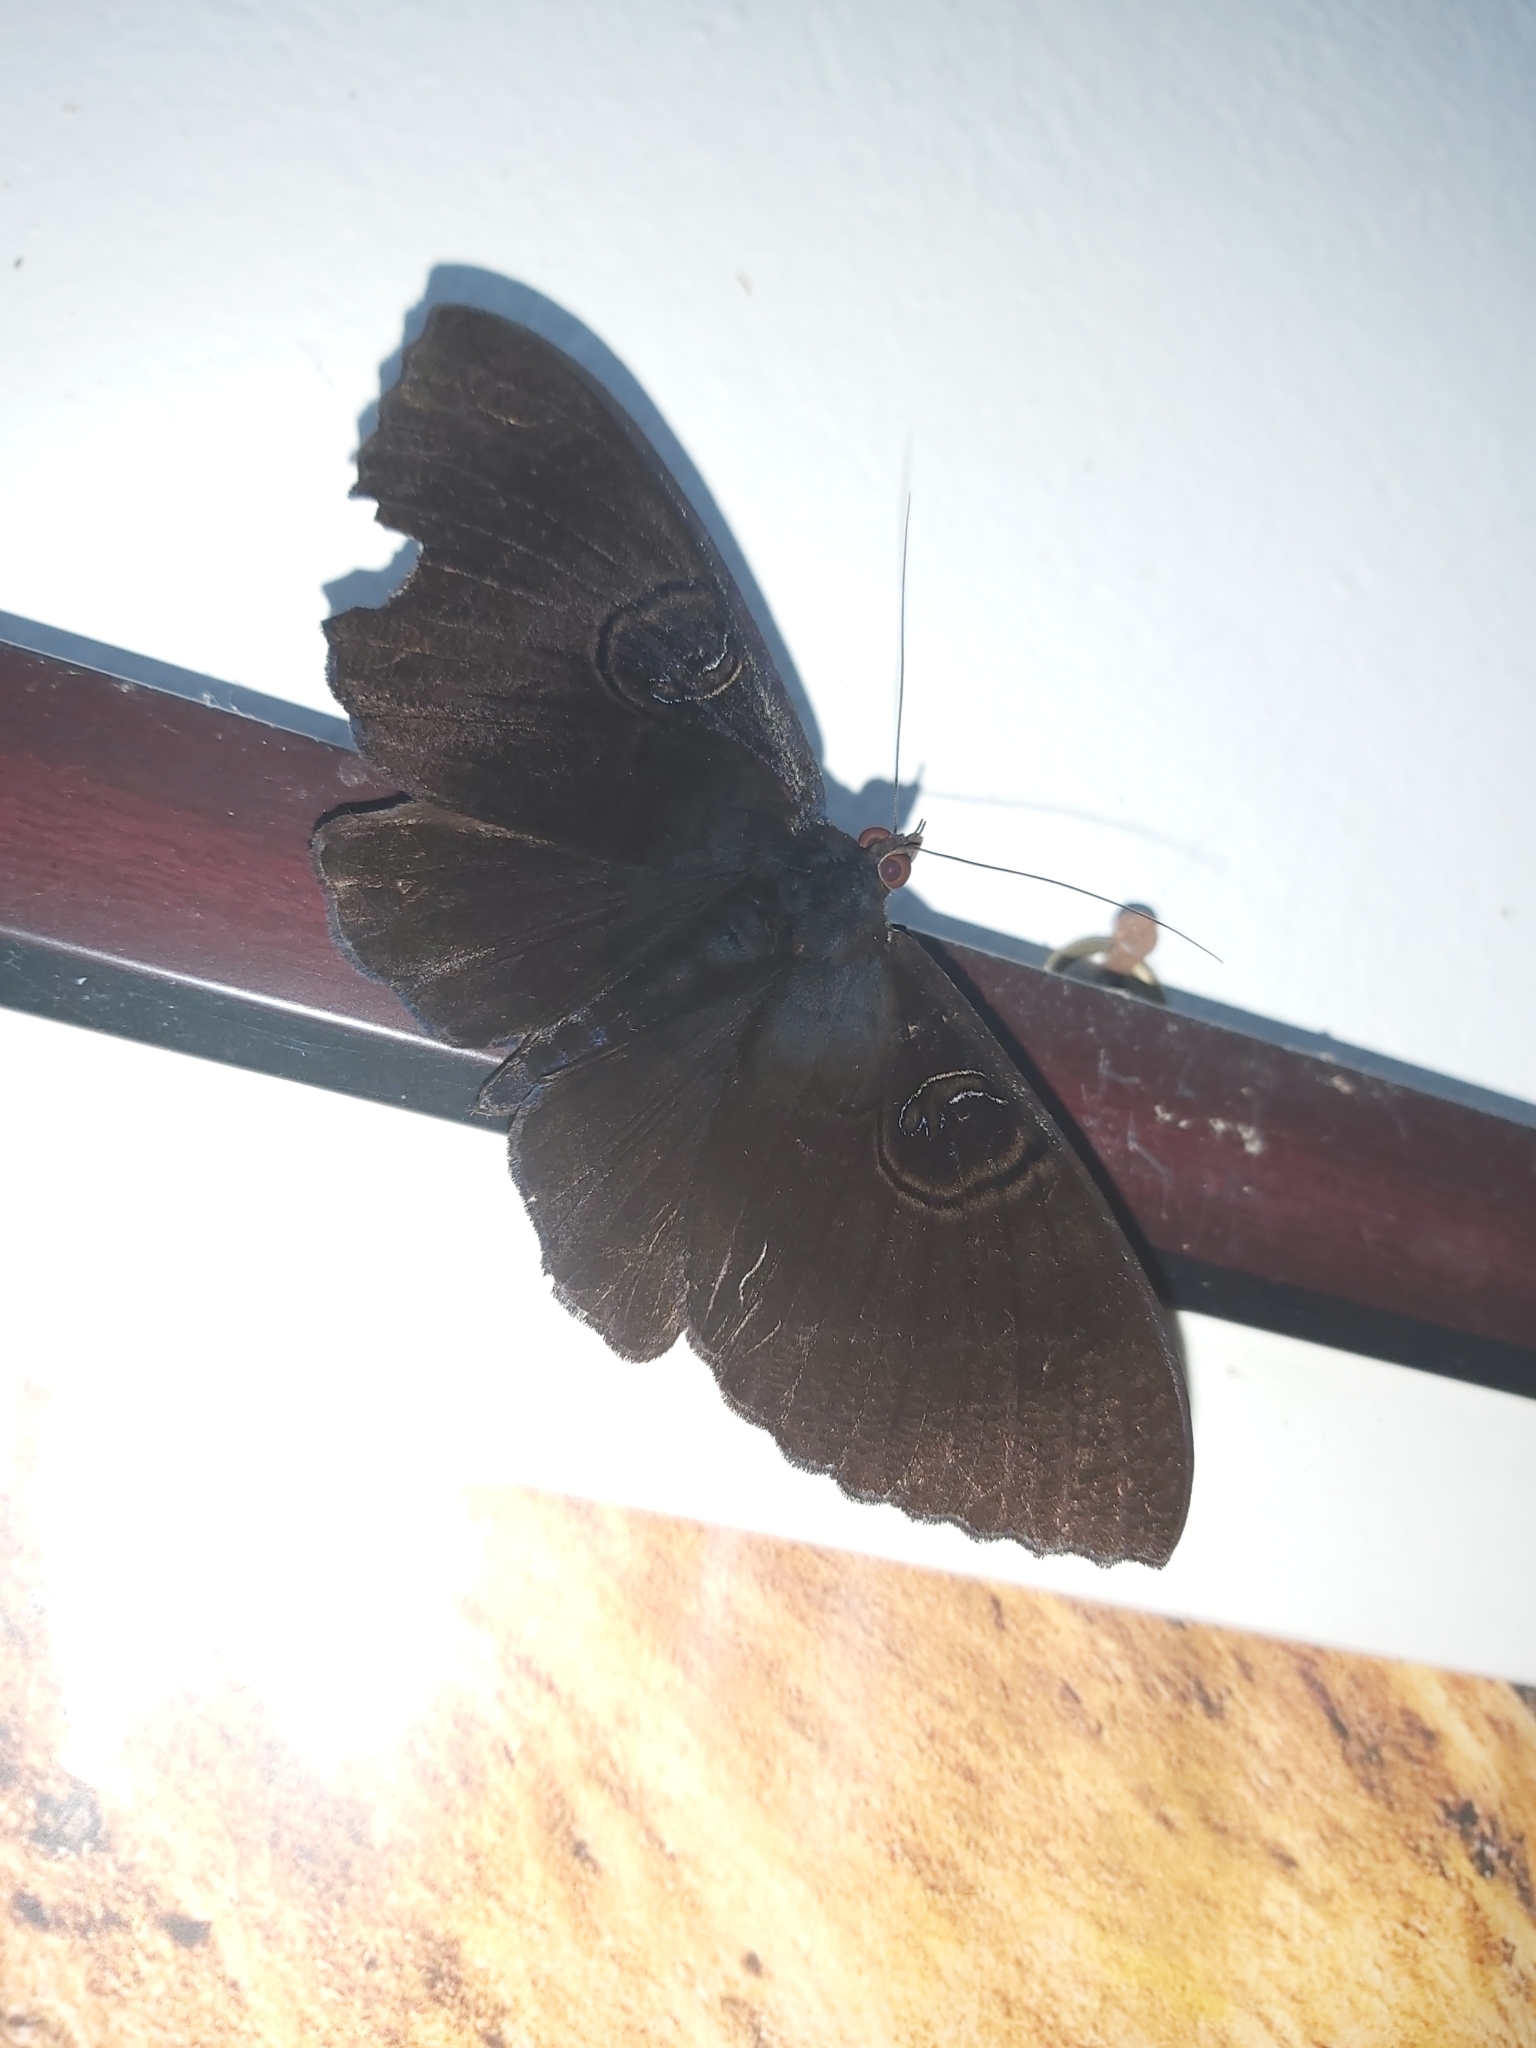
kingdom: Animalia
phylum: Arthropoda
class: Insecta
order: Lepidoptera
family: Erebidae
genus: Erebus
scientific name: Erebus caprimulgus
